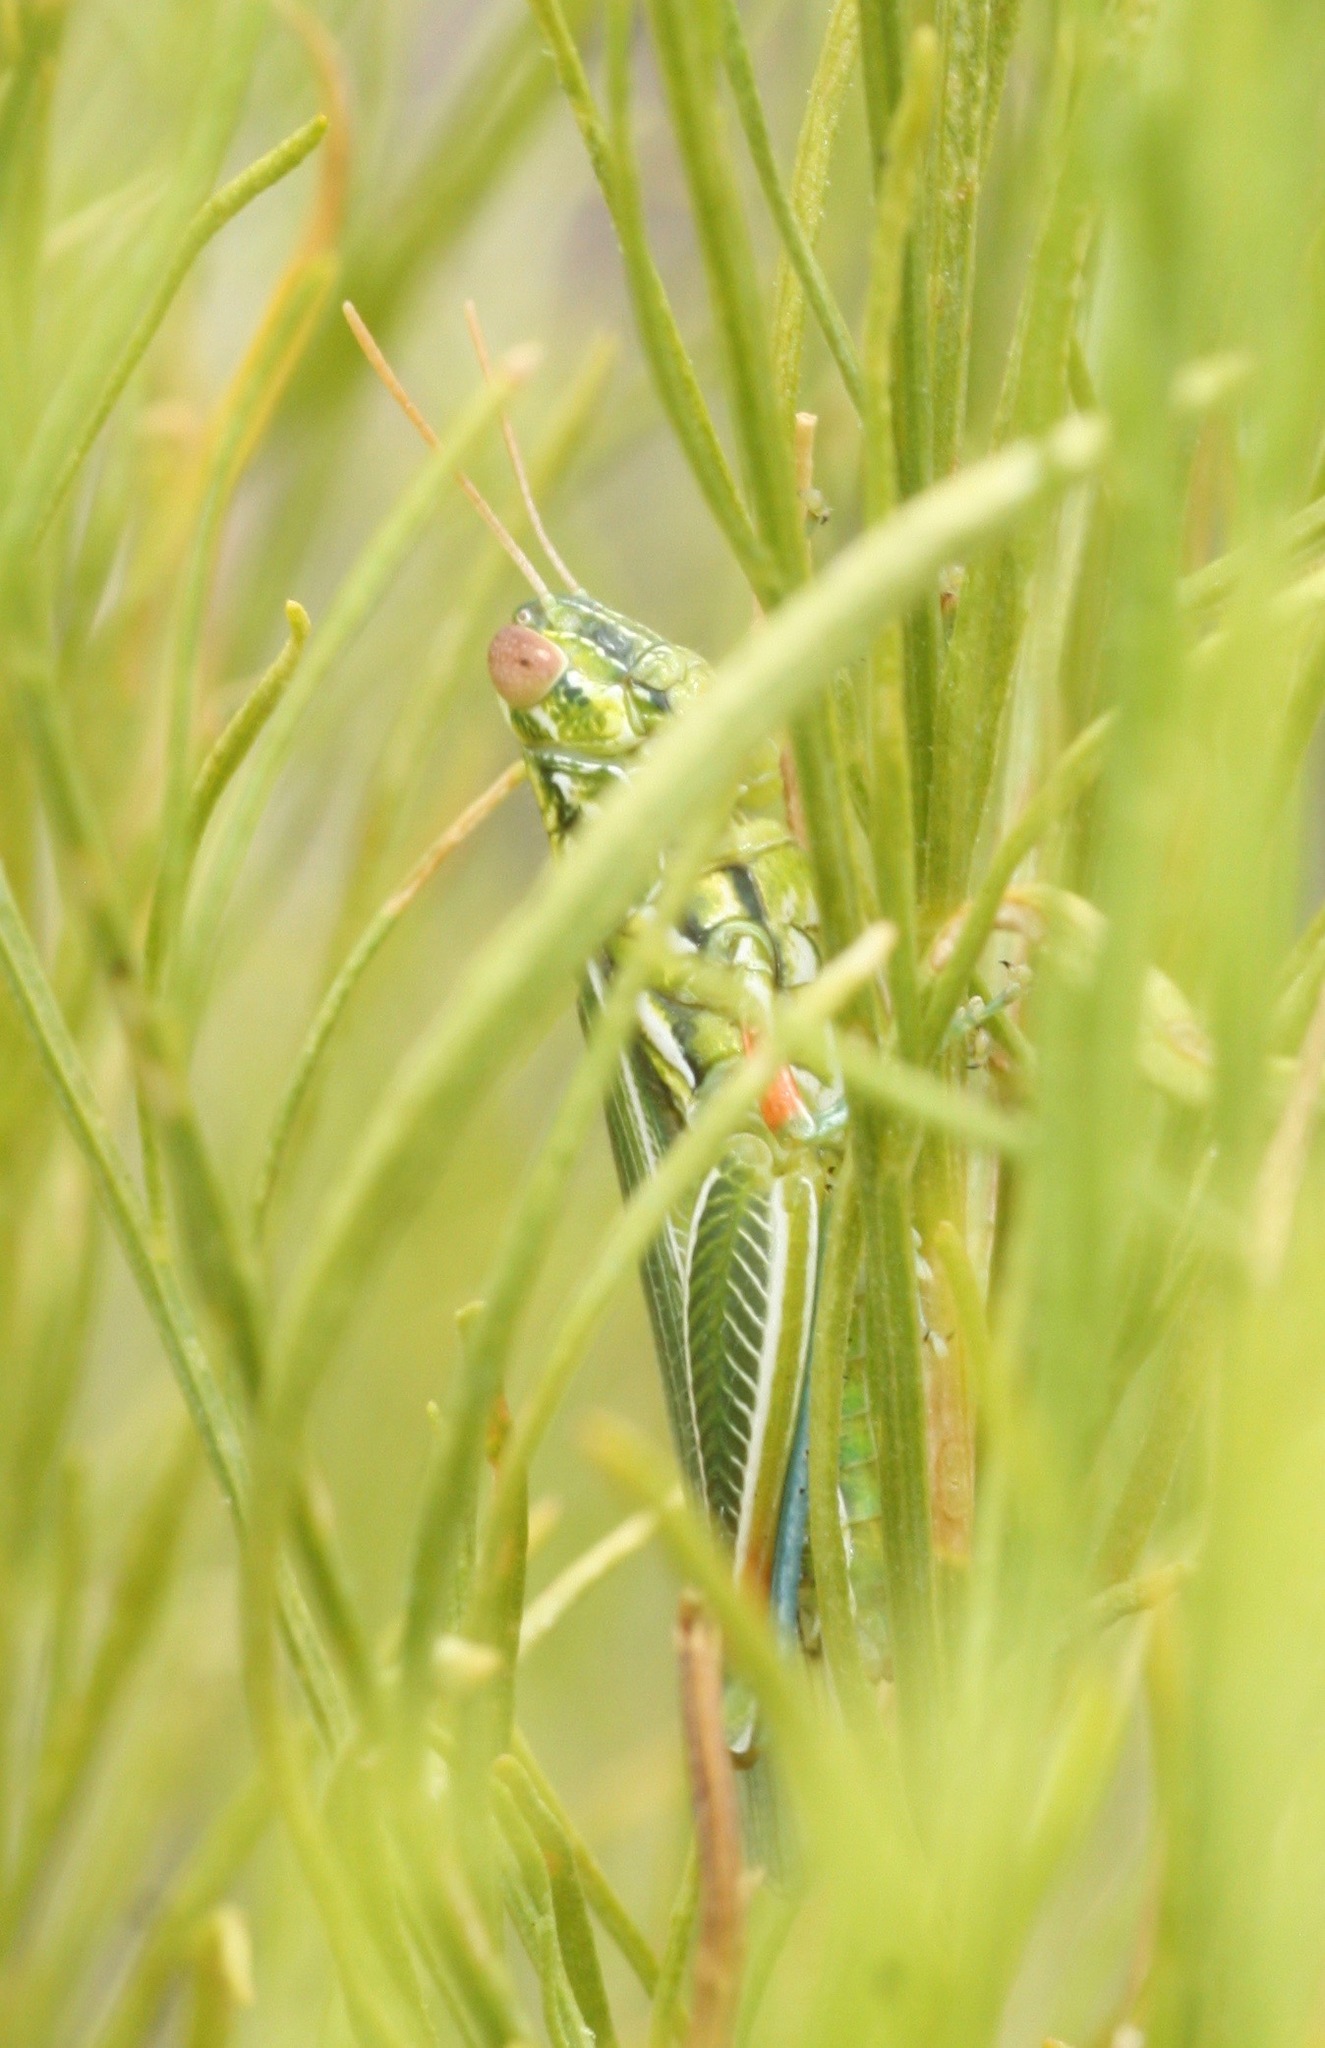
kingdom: Animalia
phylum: Arthropoda
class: Insecta
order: Orthoptera
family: Acrididae
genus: Hesperotettix
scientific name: Hesperotettix viridis
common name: Meadow purple-striped grasshopper
